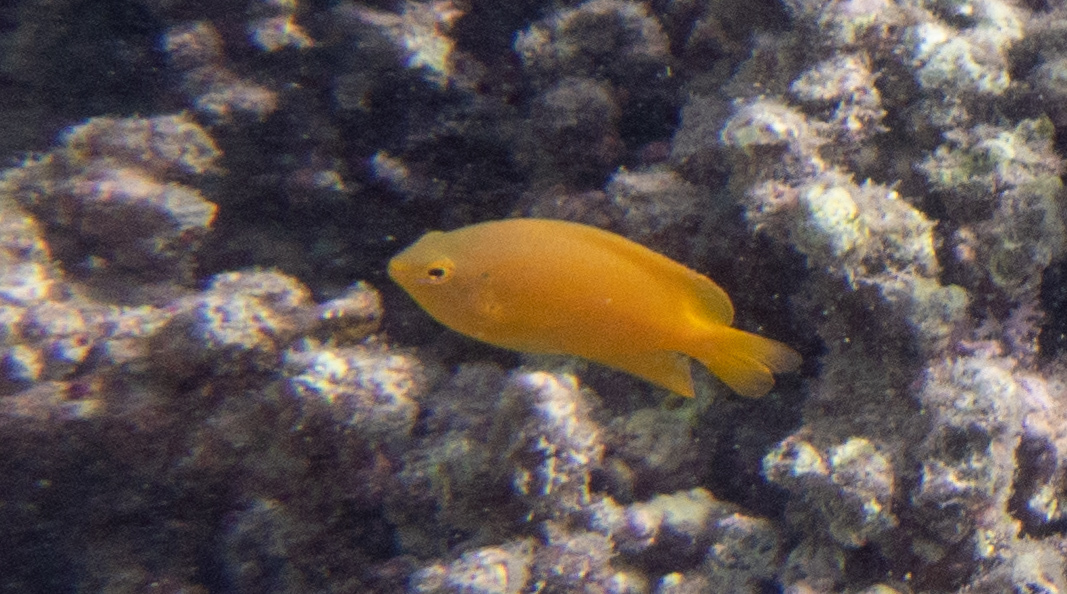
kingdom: Animalia
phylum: Chordata
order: Perciformes
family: Pomacentridae
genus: Pomacentrus
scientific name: Pomacentrus moluccensis
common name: Lemon damsel
